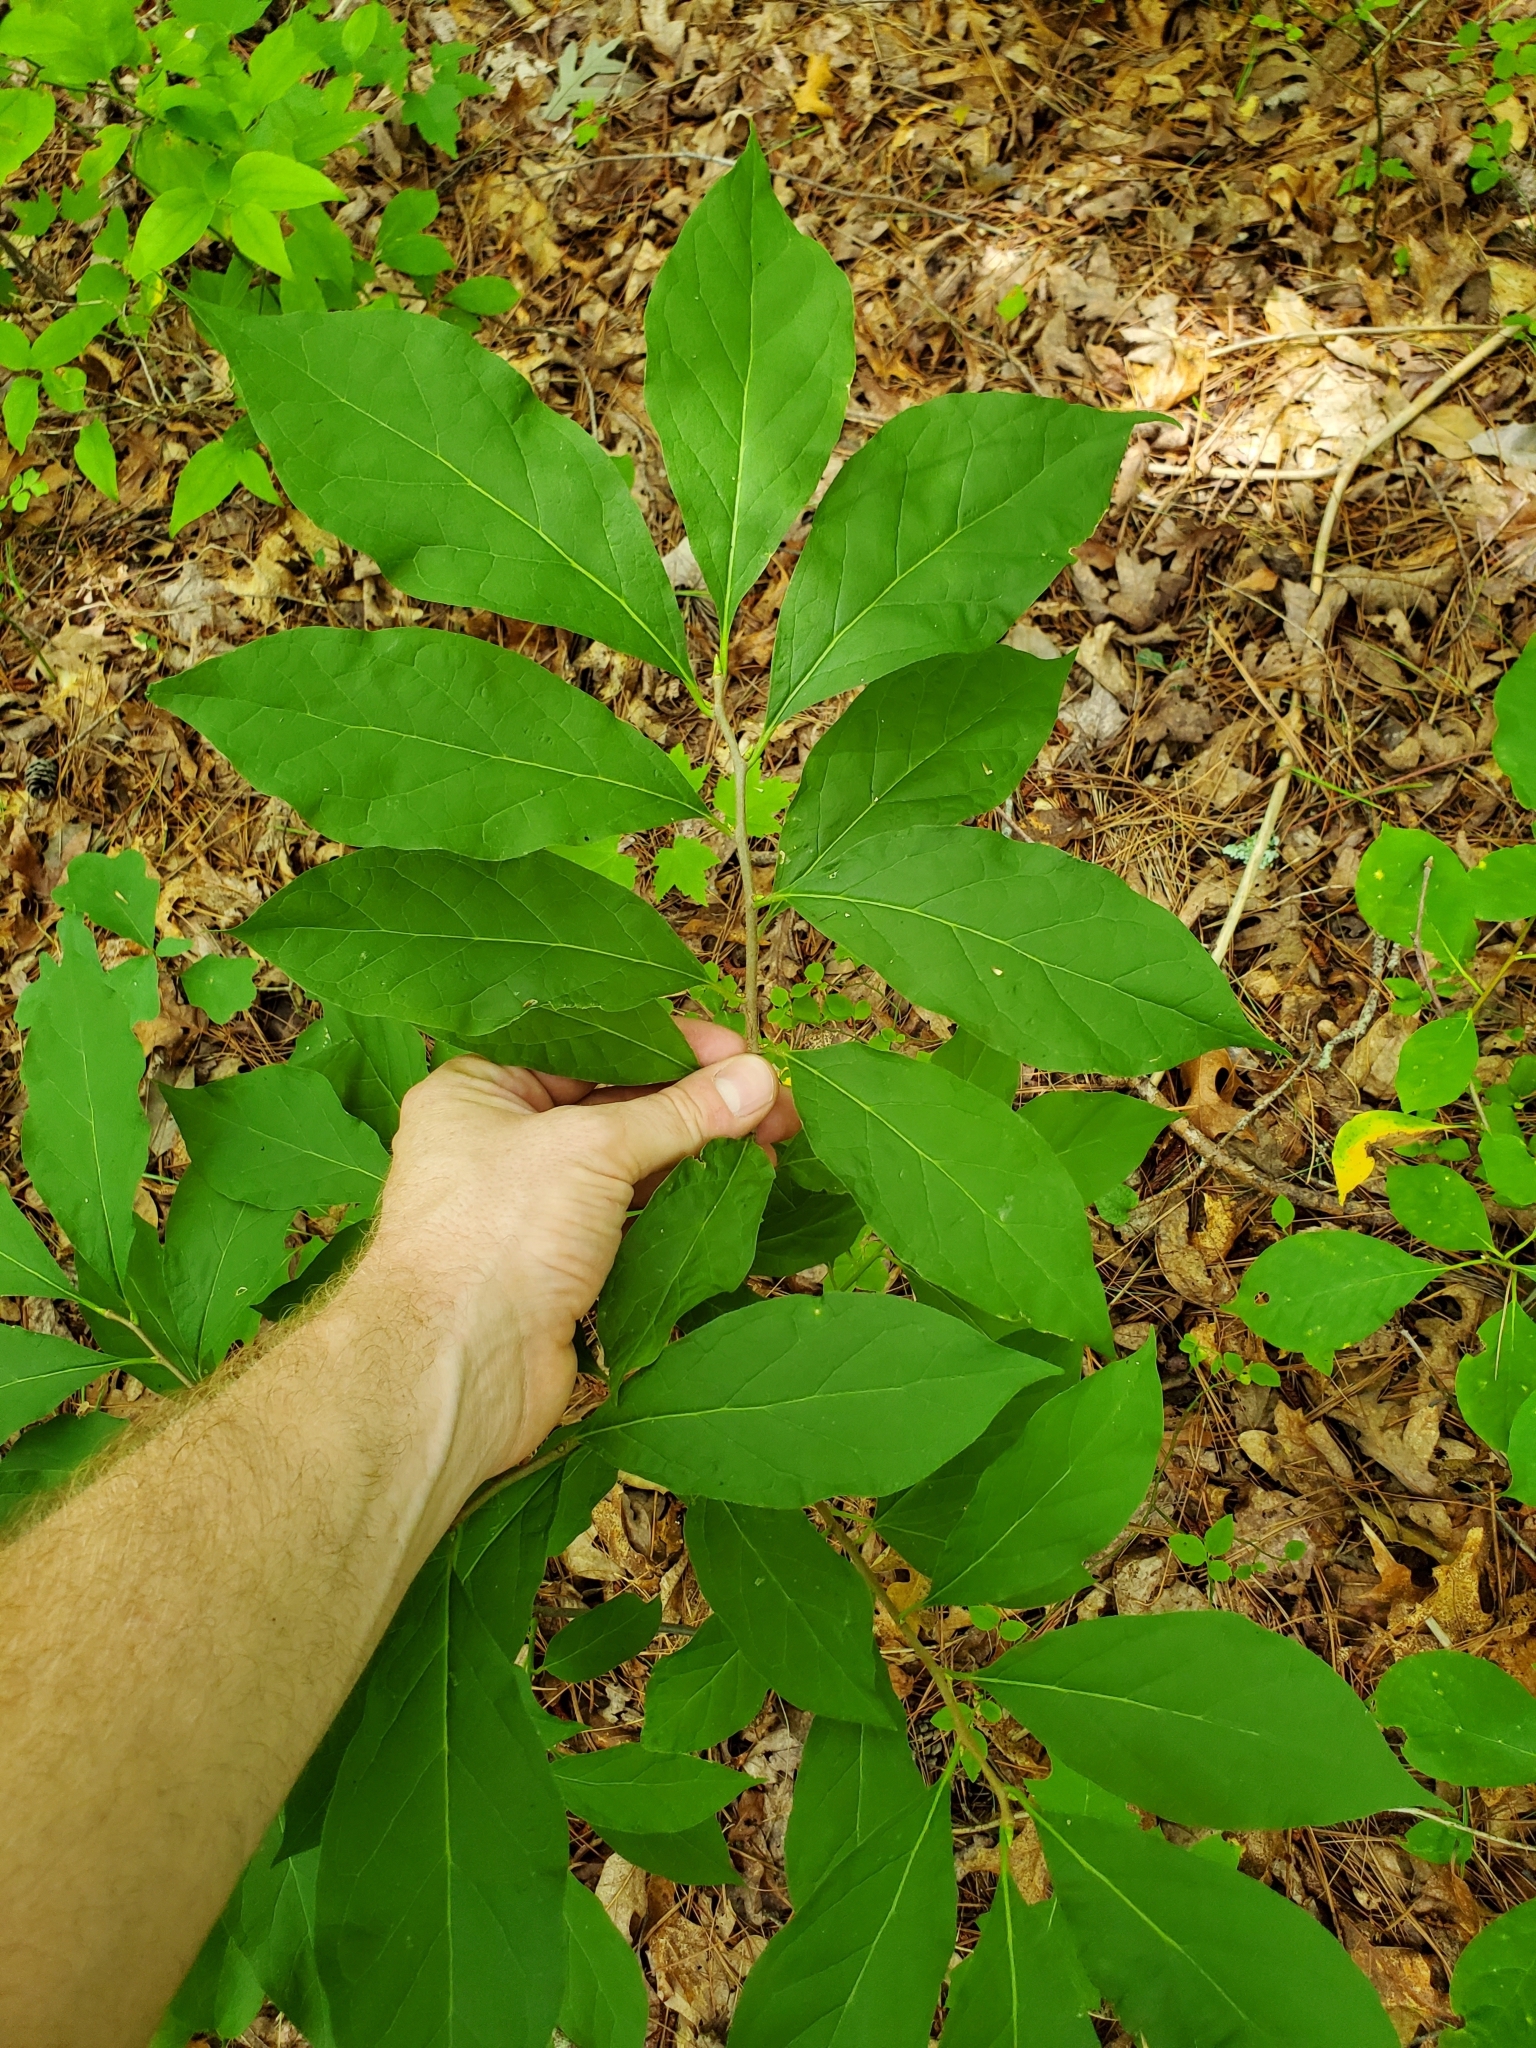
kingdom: Plantae
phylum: Tracheophyta
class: Magnoliopsida
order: Santalales
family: Cervantesiaceae
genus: Pyrularia
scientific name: Pyrularia pubera
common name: Oilnut
